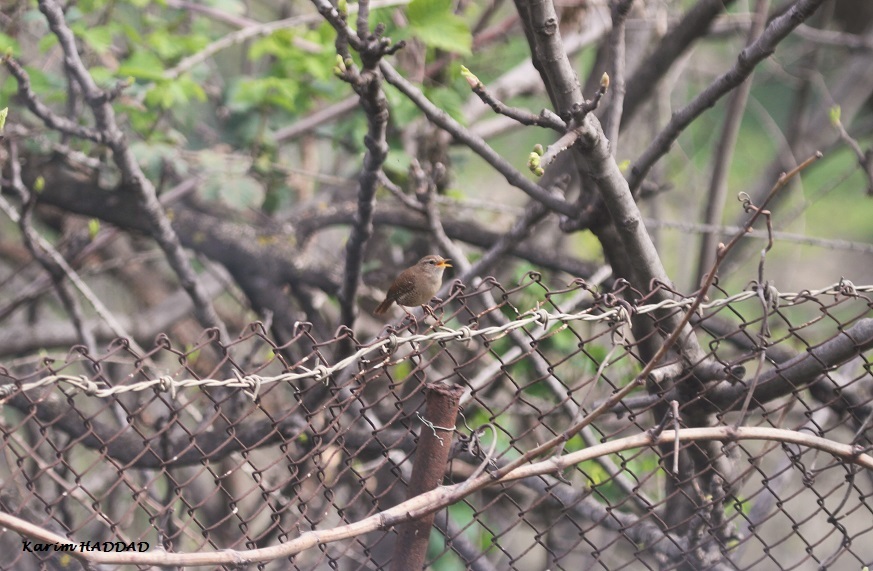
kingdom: Animalia
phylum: Chordata
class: Aves
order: Passeriformes
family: Troglodytidae
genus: Troglodytes
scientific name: Troglodytes troglodytes
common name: Eurasian wren
